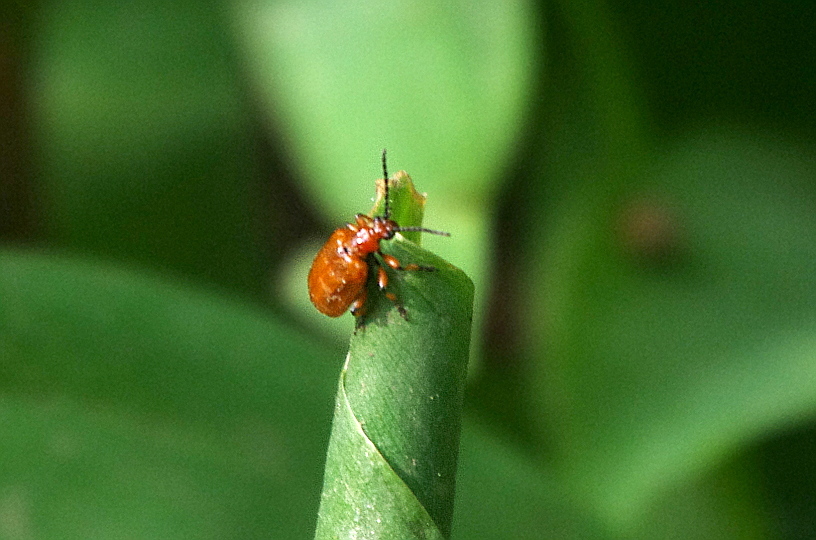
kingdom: Animalia
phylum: Arthropoda
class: Insecta
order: Coleoptera
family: Chrysomelidae
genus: Lilioceris
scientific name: Lilioceris merdigera
